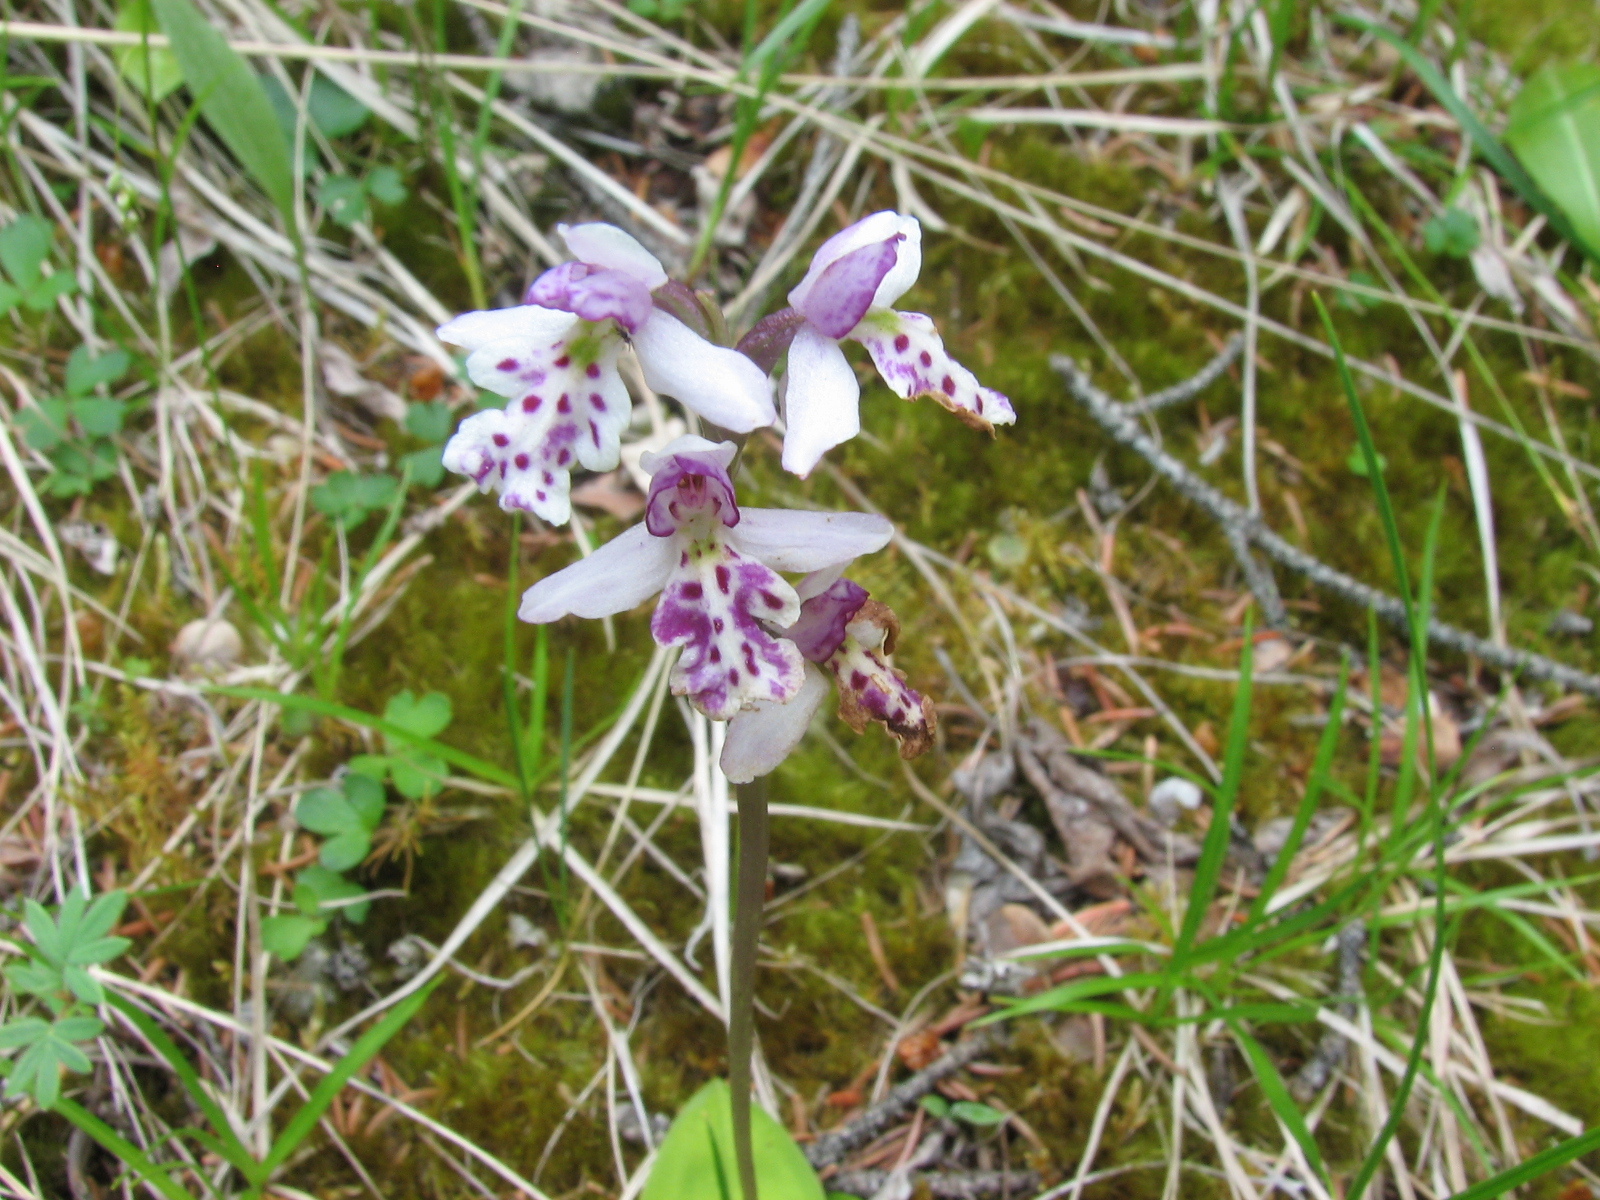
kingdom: Plantae
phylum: Tracheophyta
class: Liliopsida
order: Asparagales
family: Orchidaceae
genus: Galearis
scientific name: Galearis rotundifolia
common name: One-leaved orchis
